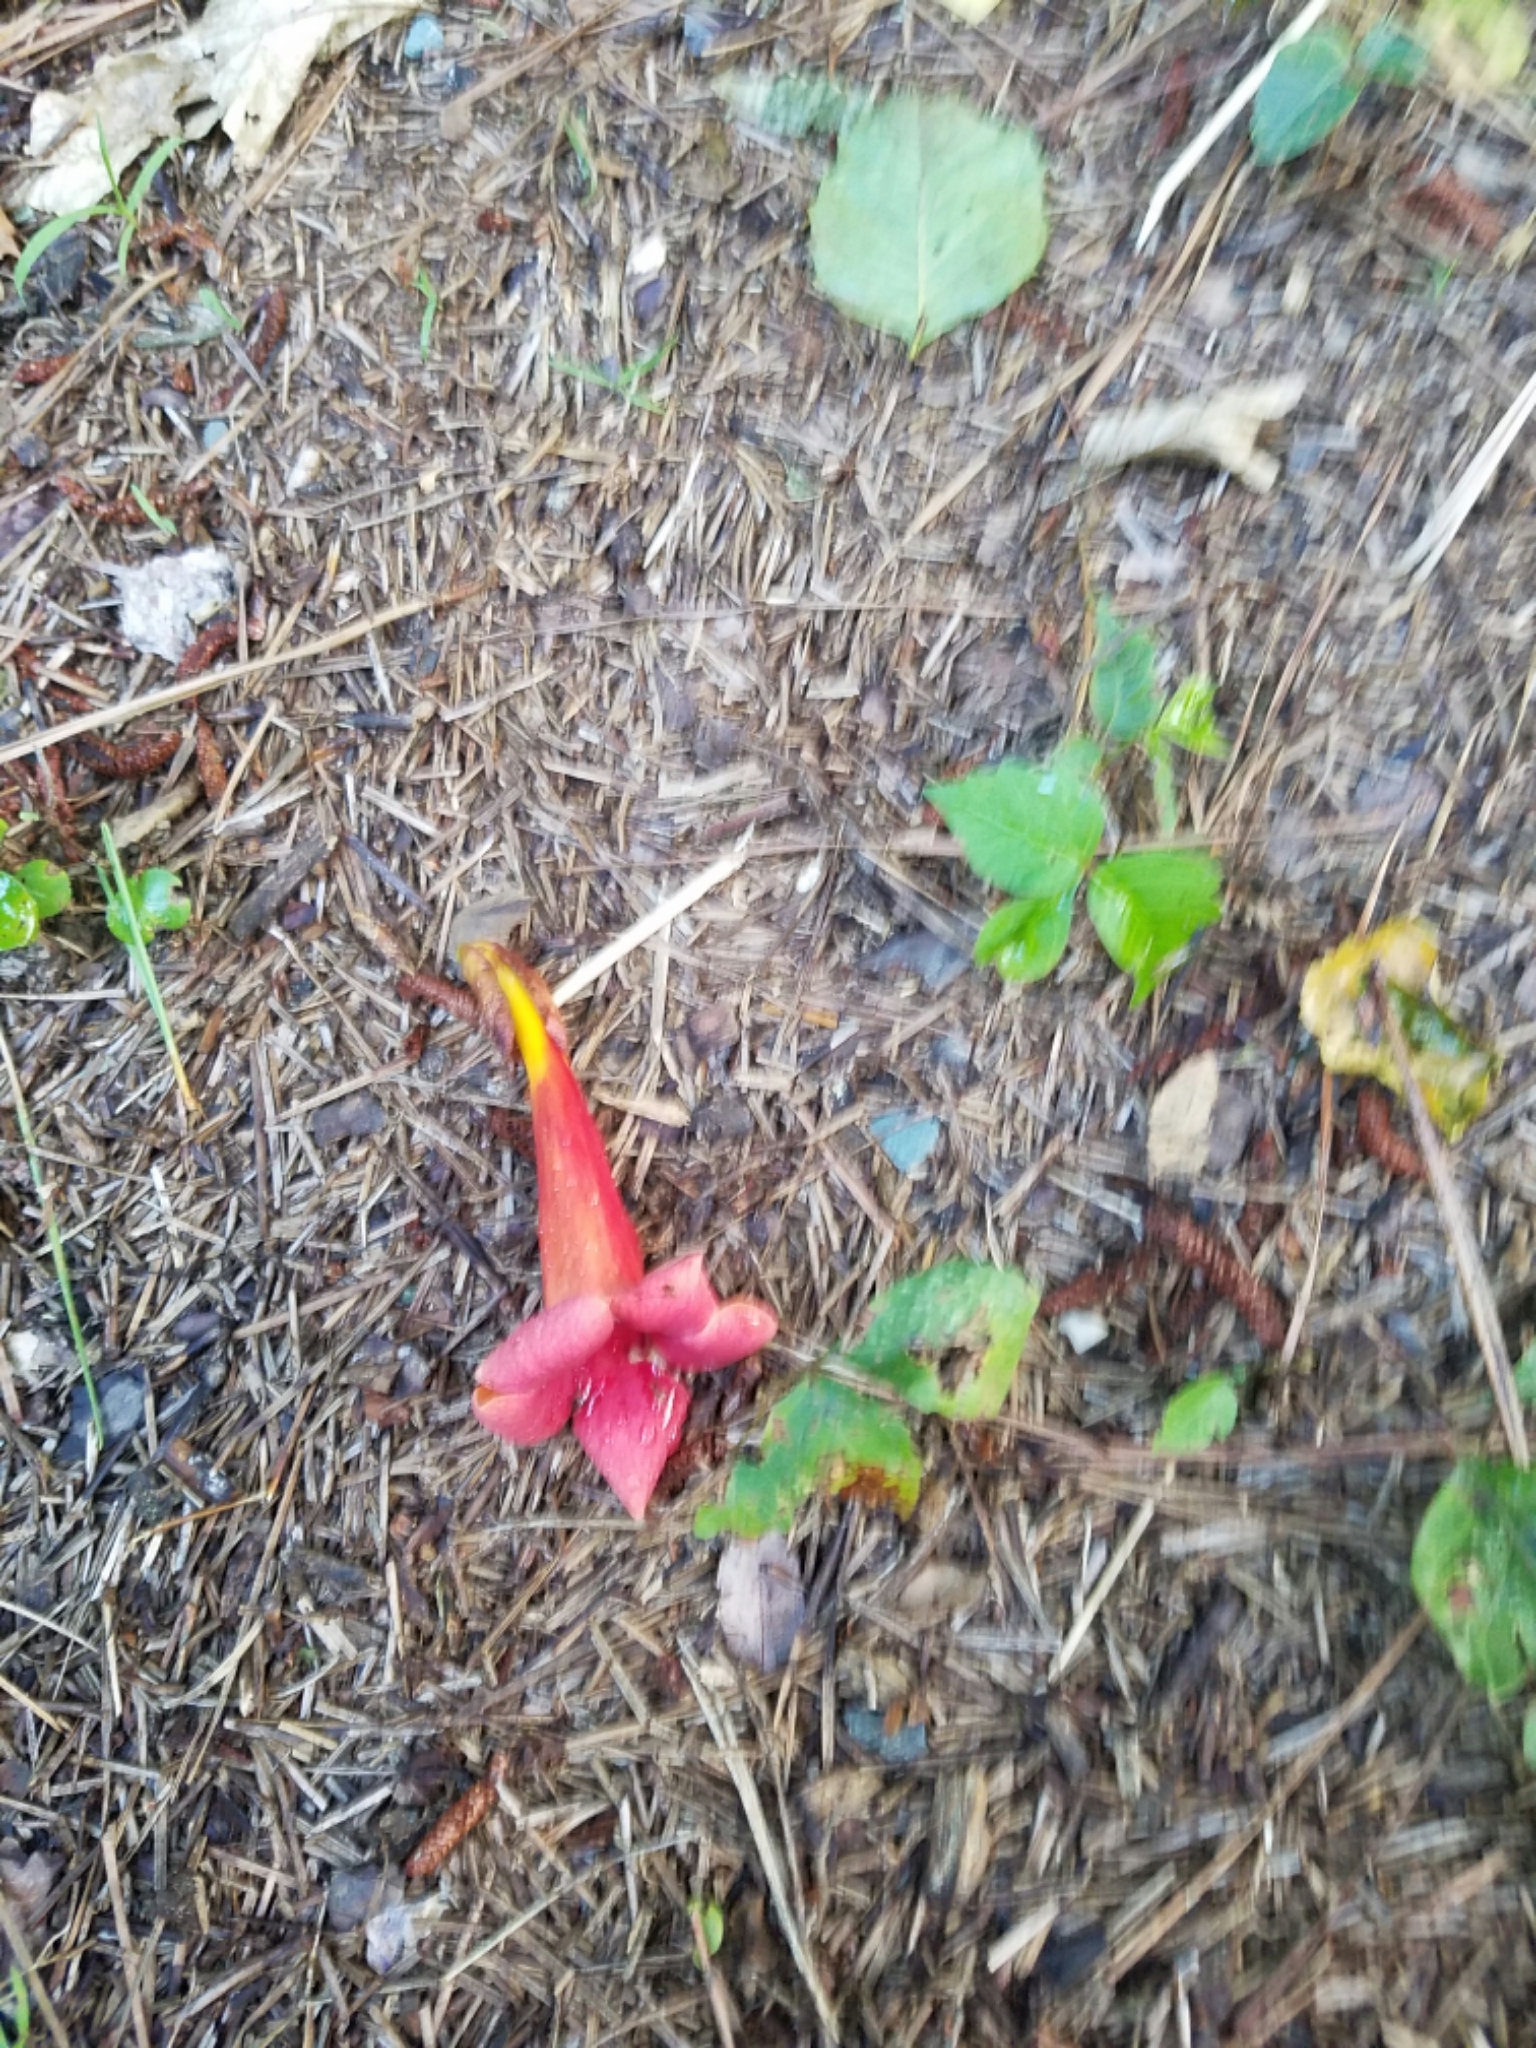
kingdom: Plantae
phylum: Tracheophyta
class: Magnoliopsida
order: Lamiales
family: Bignoniaceae
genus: Campsis
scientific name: Campsis radicans
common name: Trumpet-creeper
